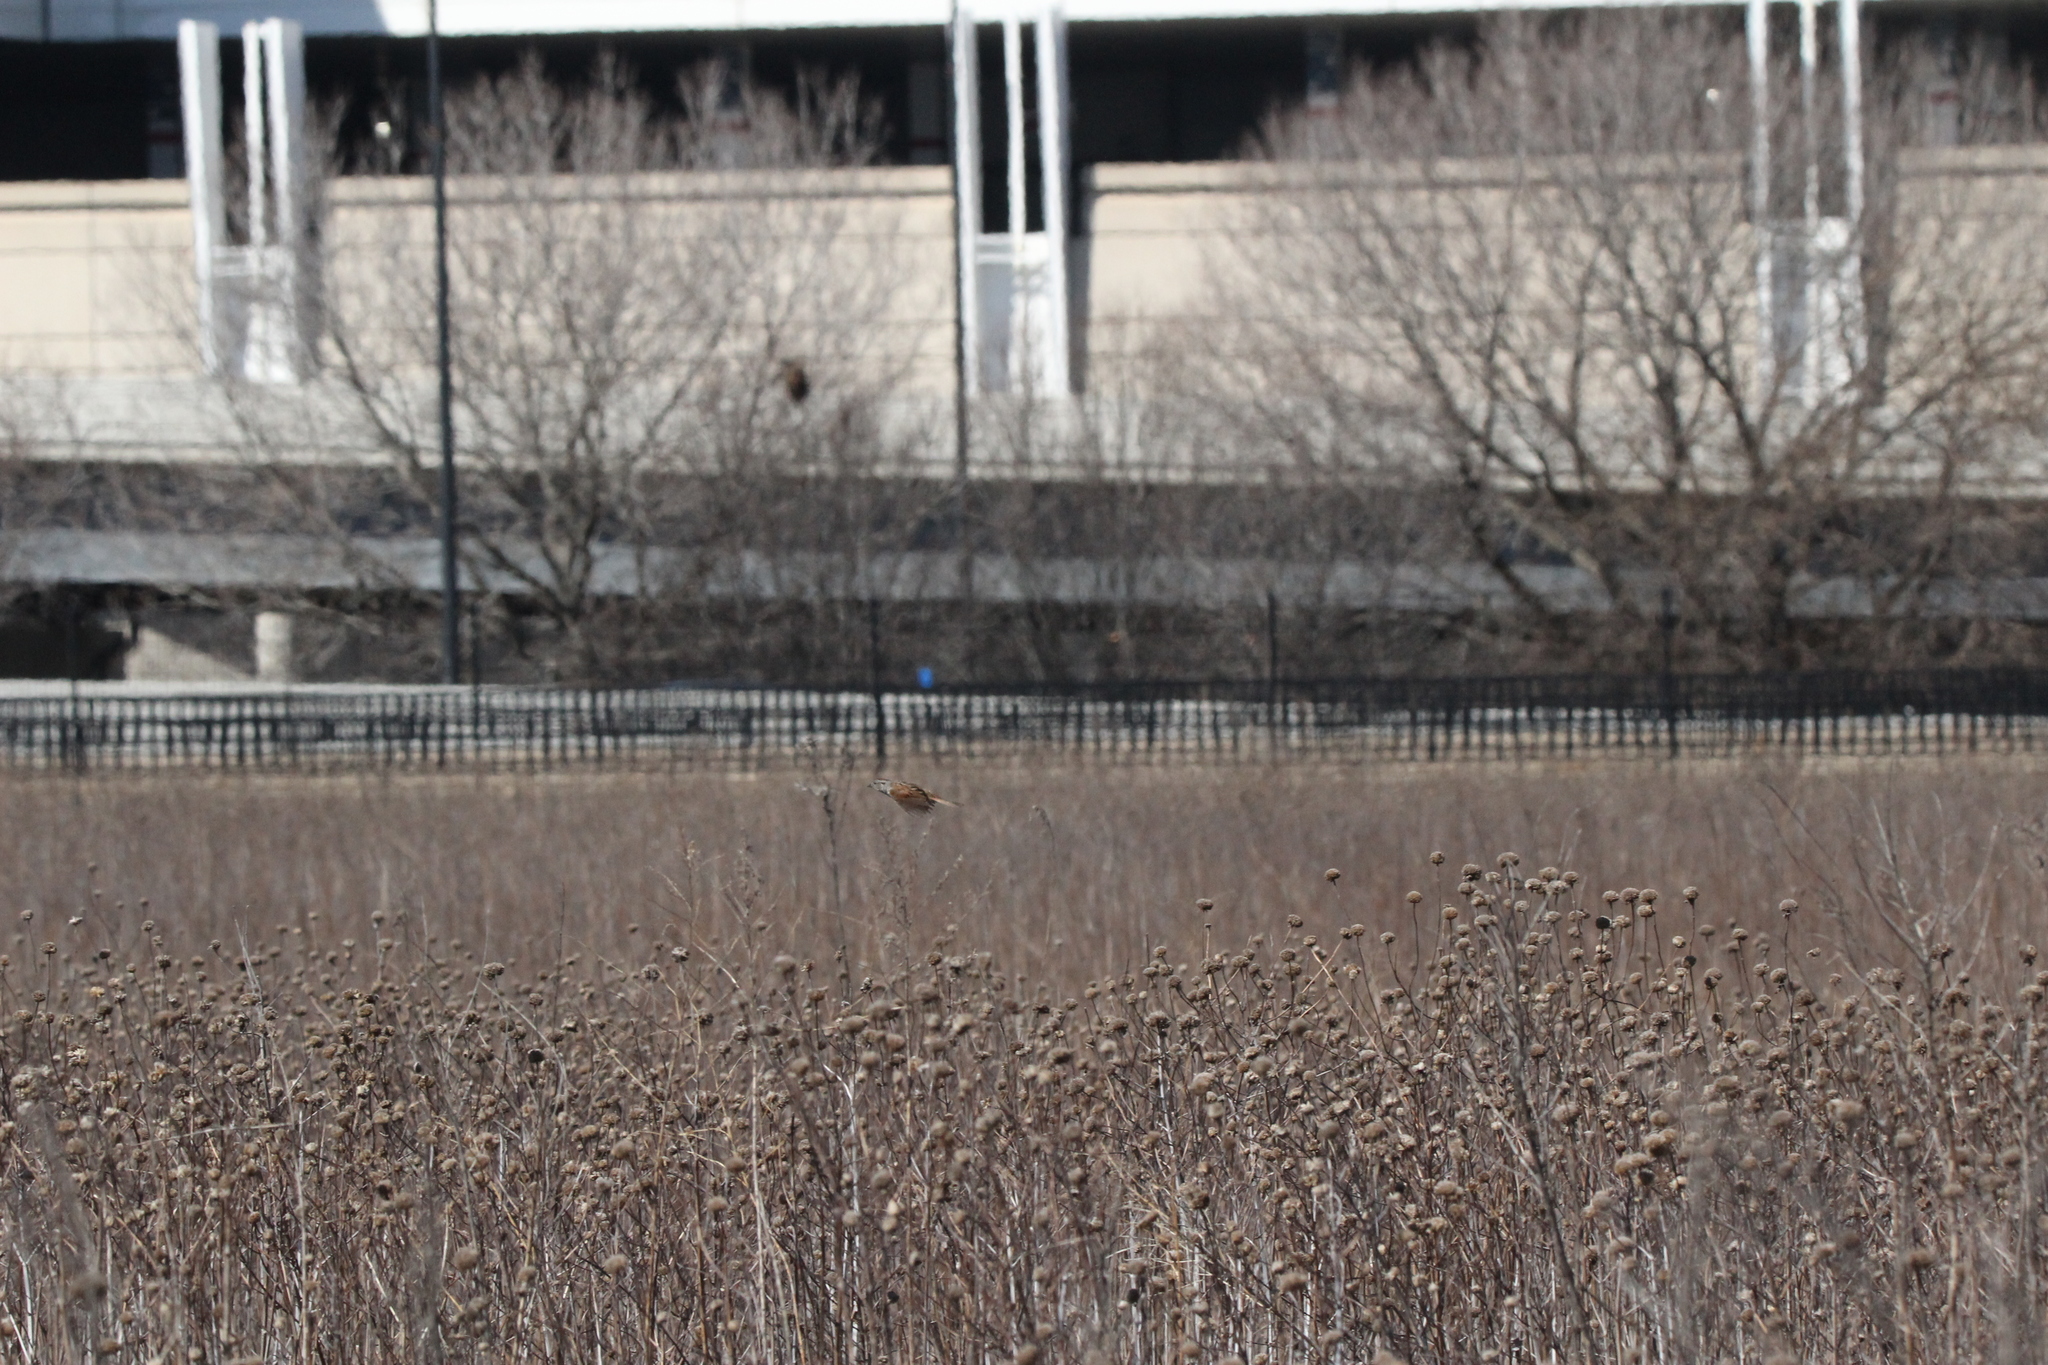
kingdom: Animalia
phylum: Chordata
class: Aves
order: Passeriformes
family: Passerellidae
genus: Melospiza
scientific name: Melospiza georgiana
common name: Swamp sparrow
